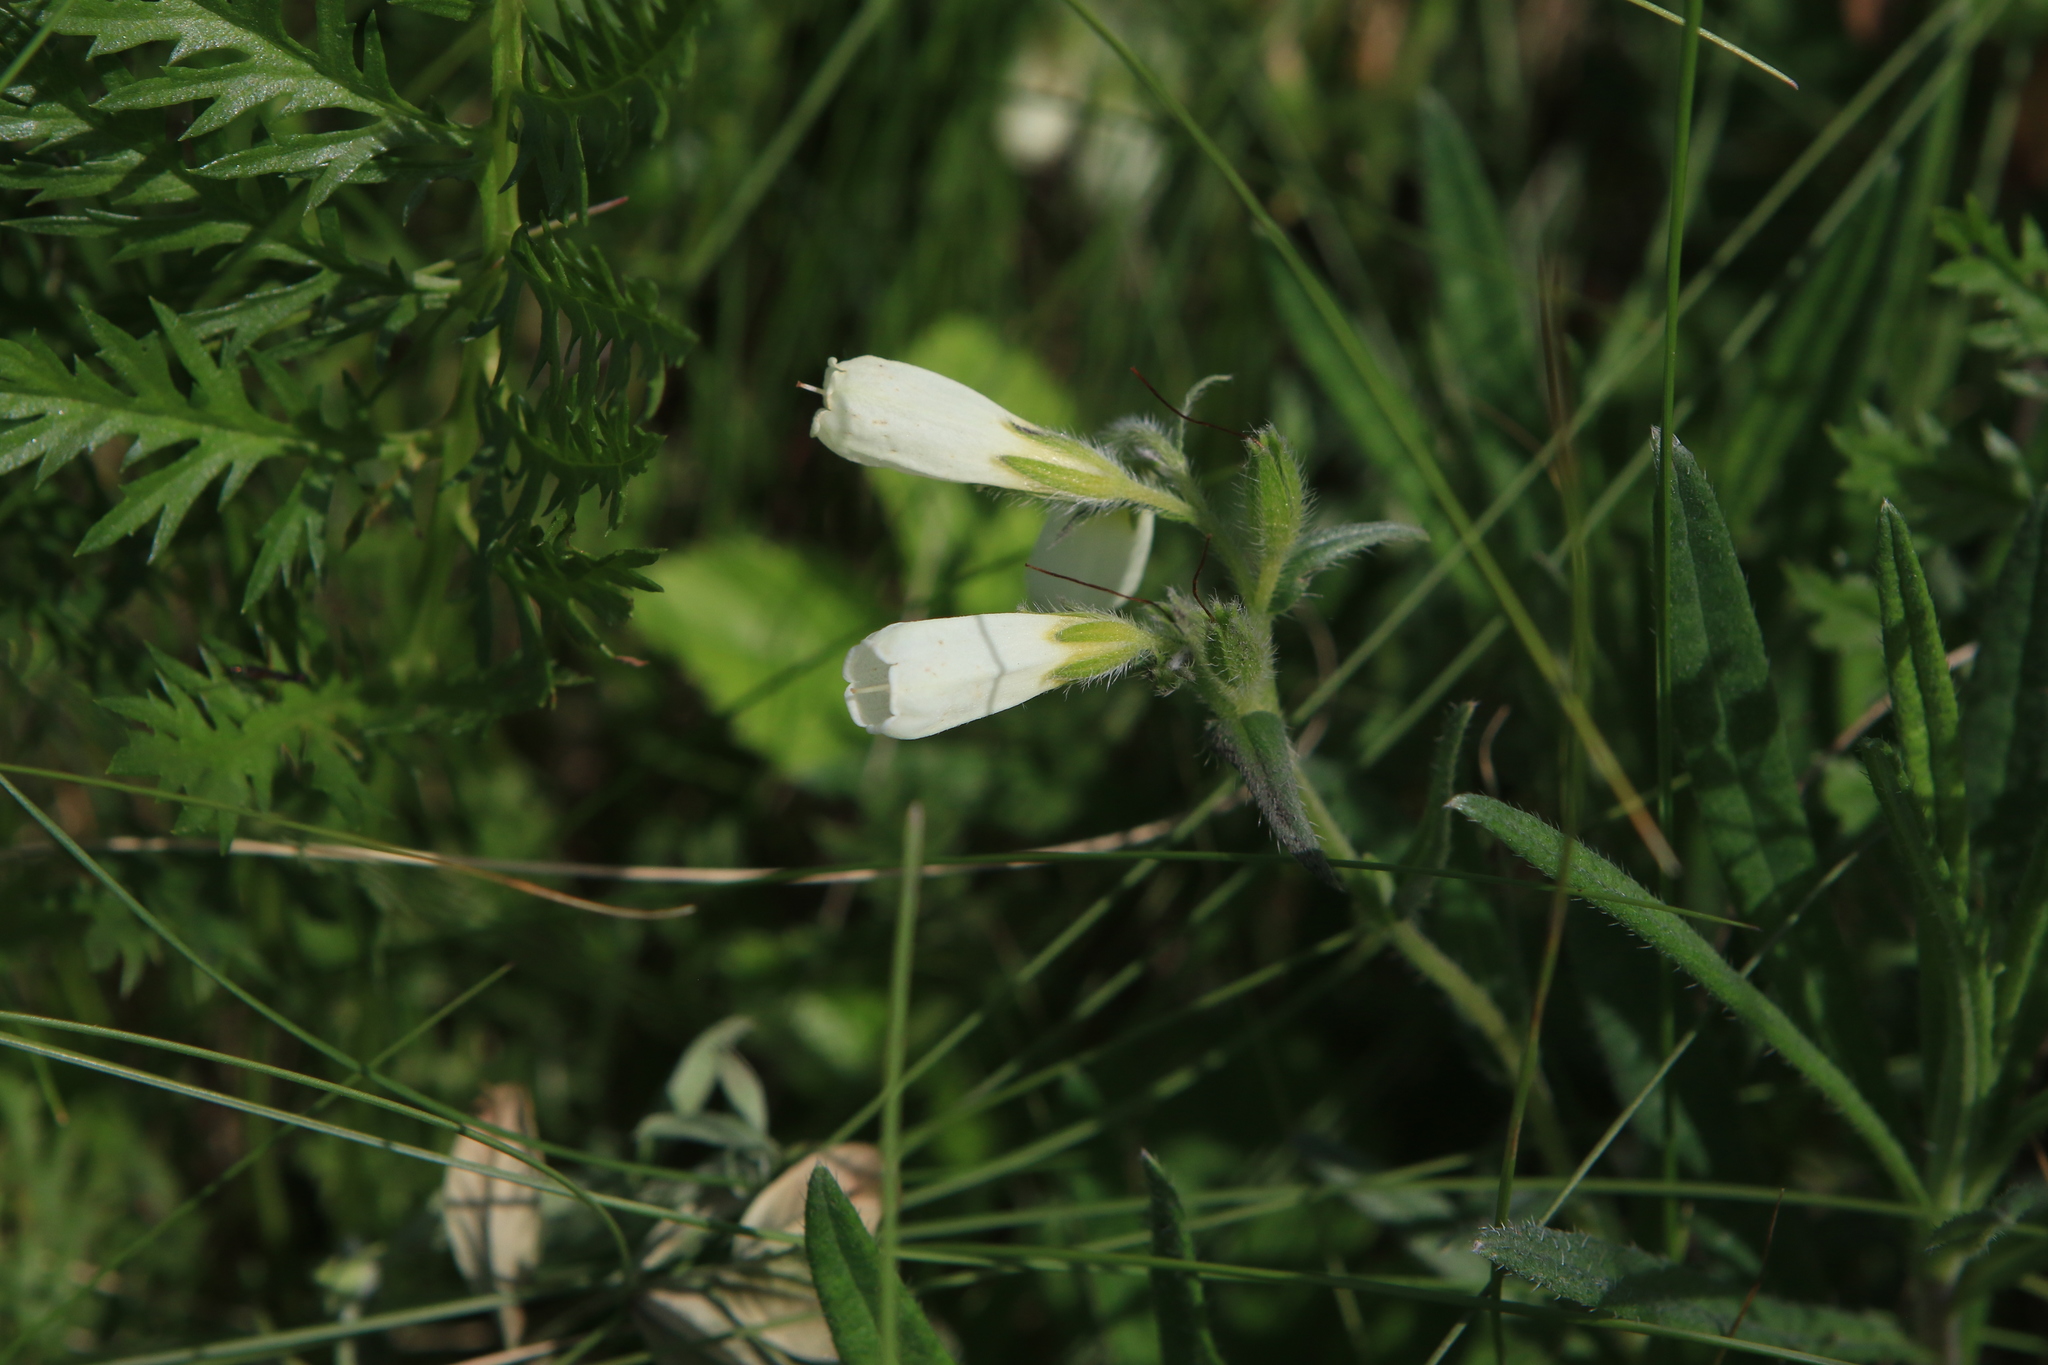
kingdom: Plantae
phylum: Tracheophyta
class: Magnoliopsida
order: Boraginales
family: Boraginaceae
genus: Onosma
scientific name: Onosma simplicissima
